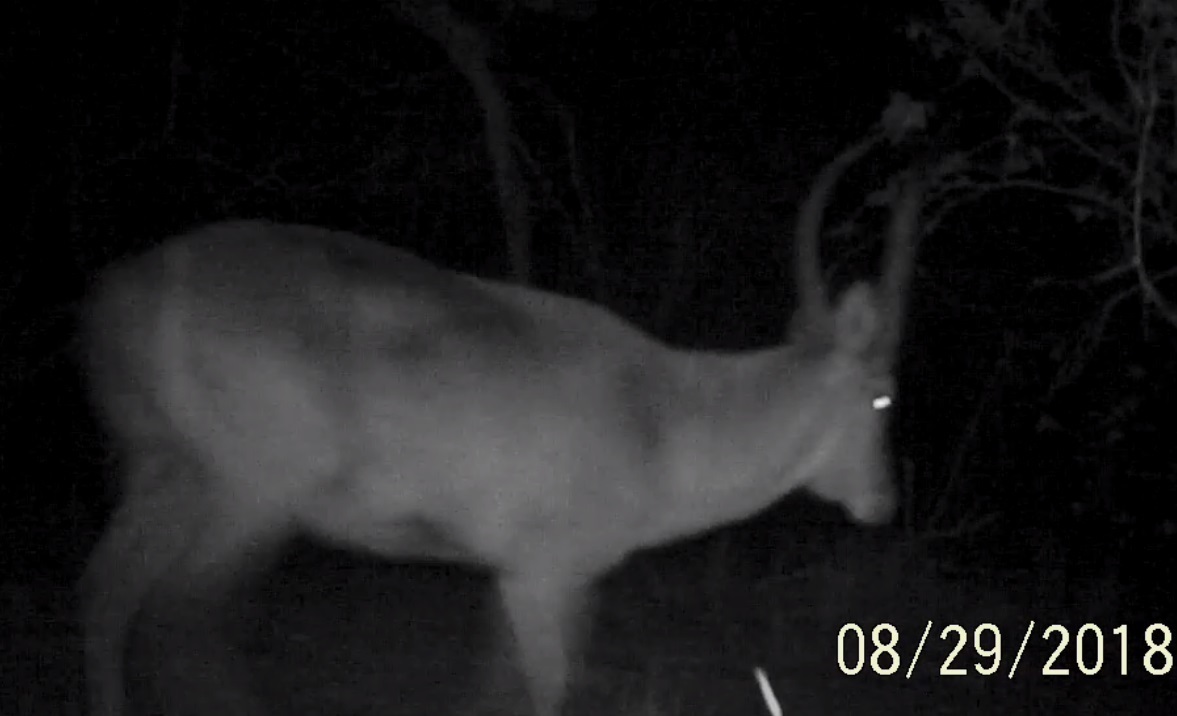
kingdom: Animalia
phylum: Chordata
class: Mammalia
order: Artiodactyla
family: Bovidae
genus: Kobus
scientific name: Kobus ellipsiprymnus
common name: Waterbuck
